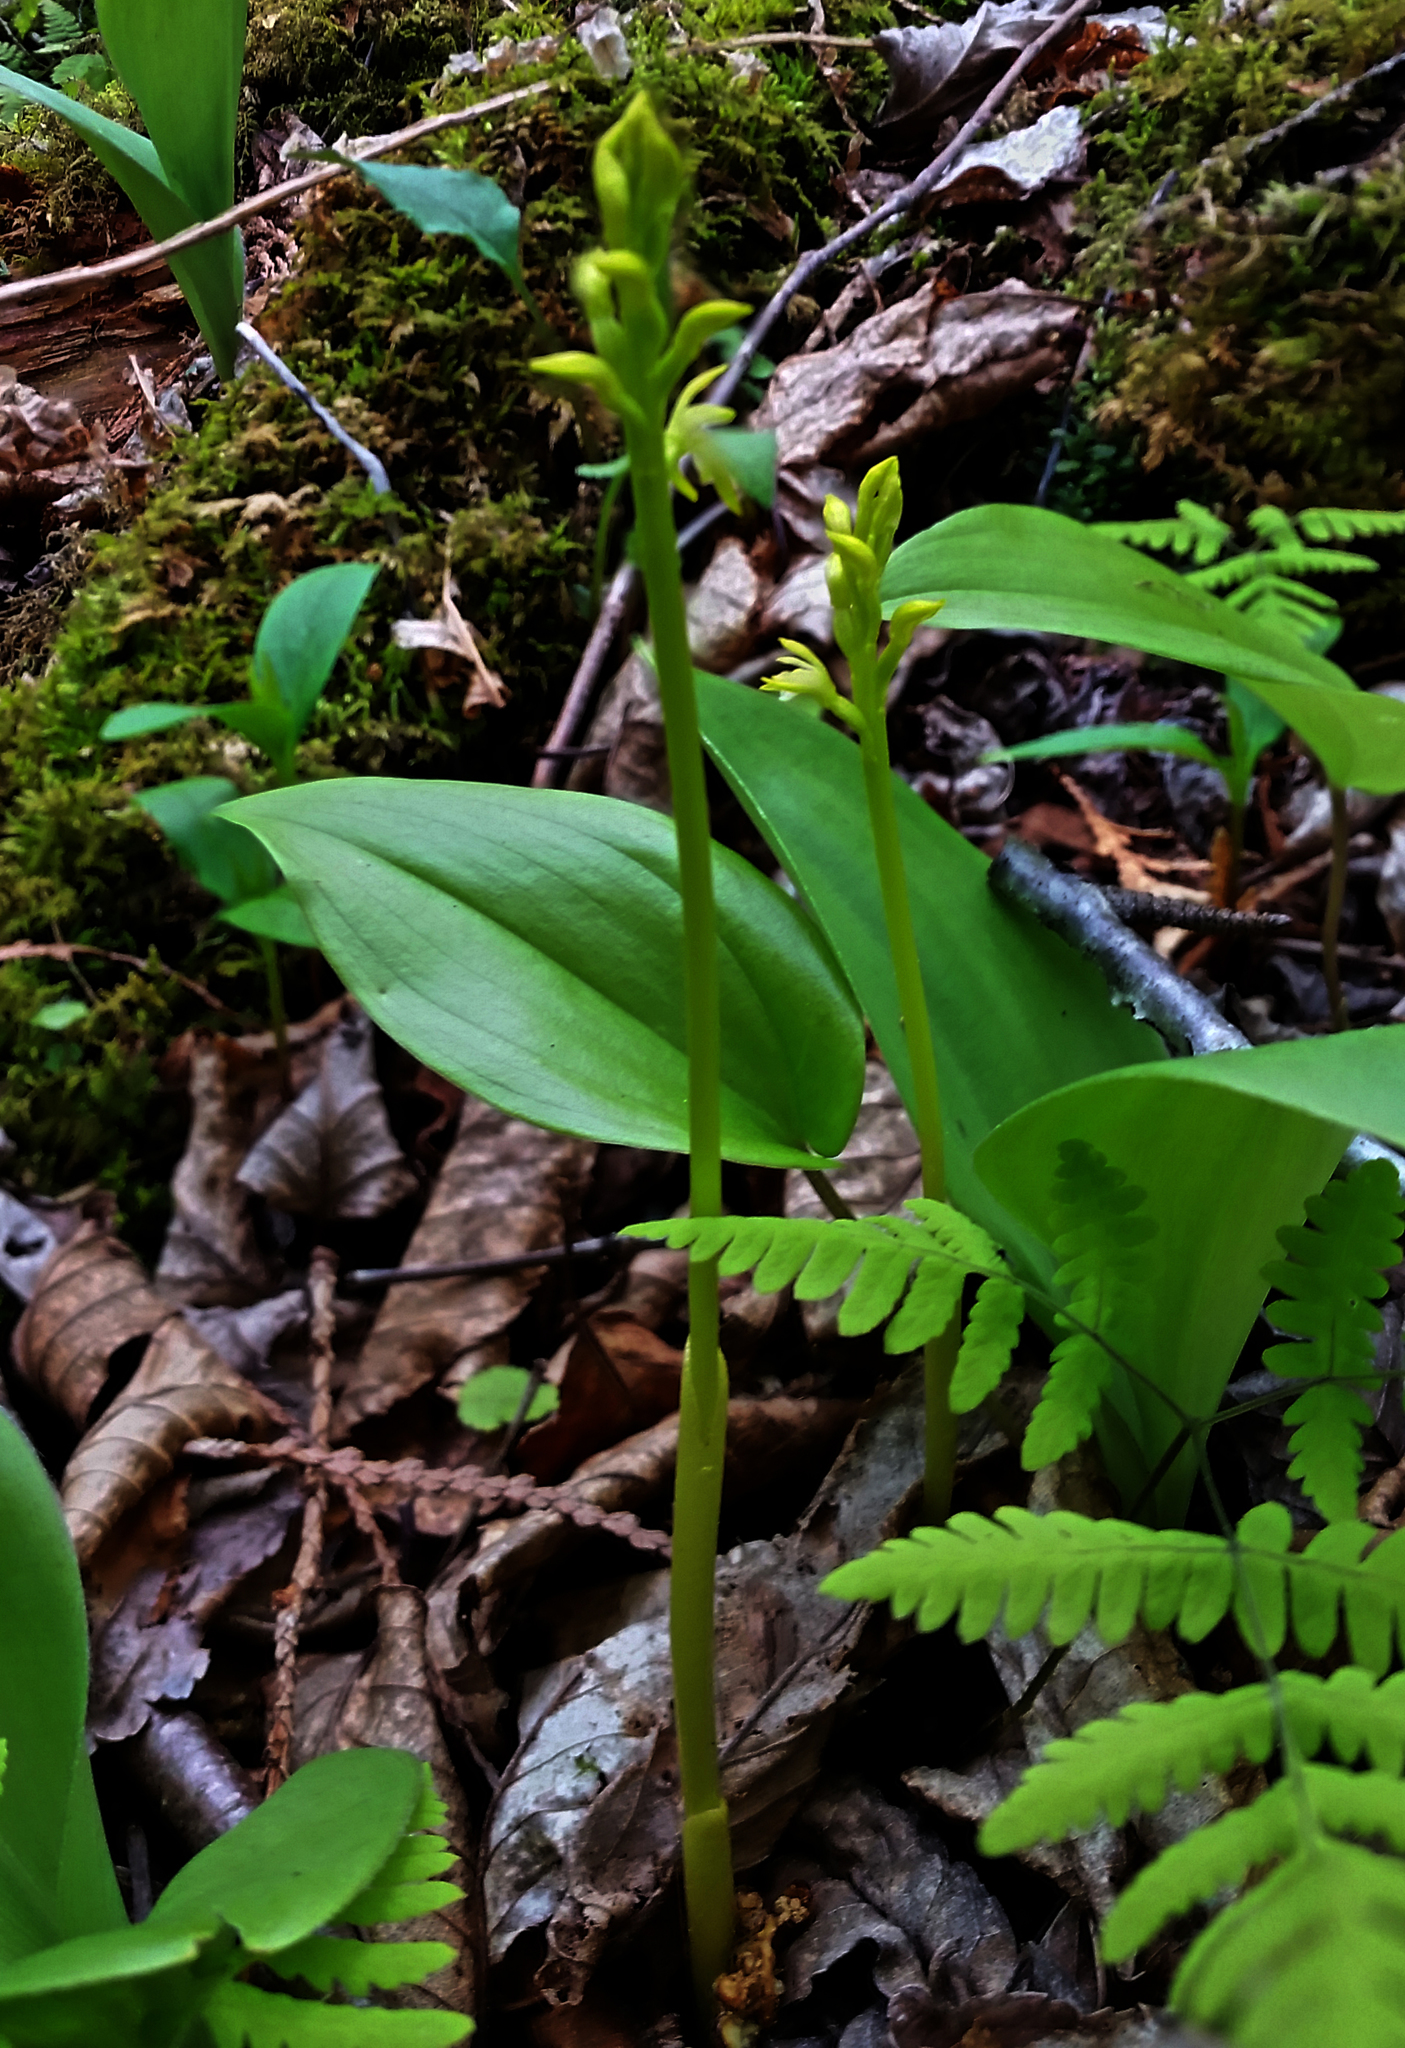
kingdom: Plantae
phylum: Tracheophyta
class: Liliopsida
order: Asparagales
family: Orchidaceae
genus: Corallorhiza
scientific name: Corallorhiza trifida
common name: Yellow coralroot
